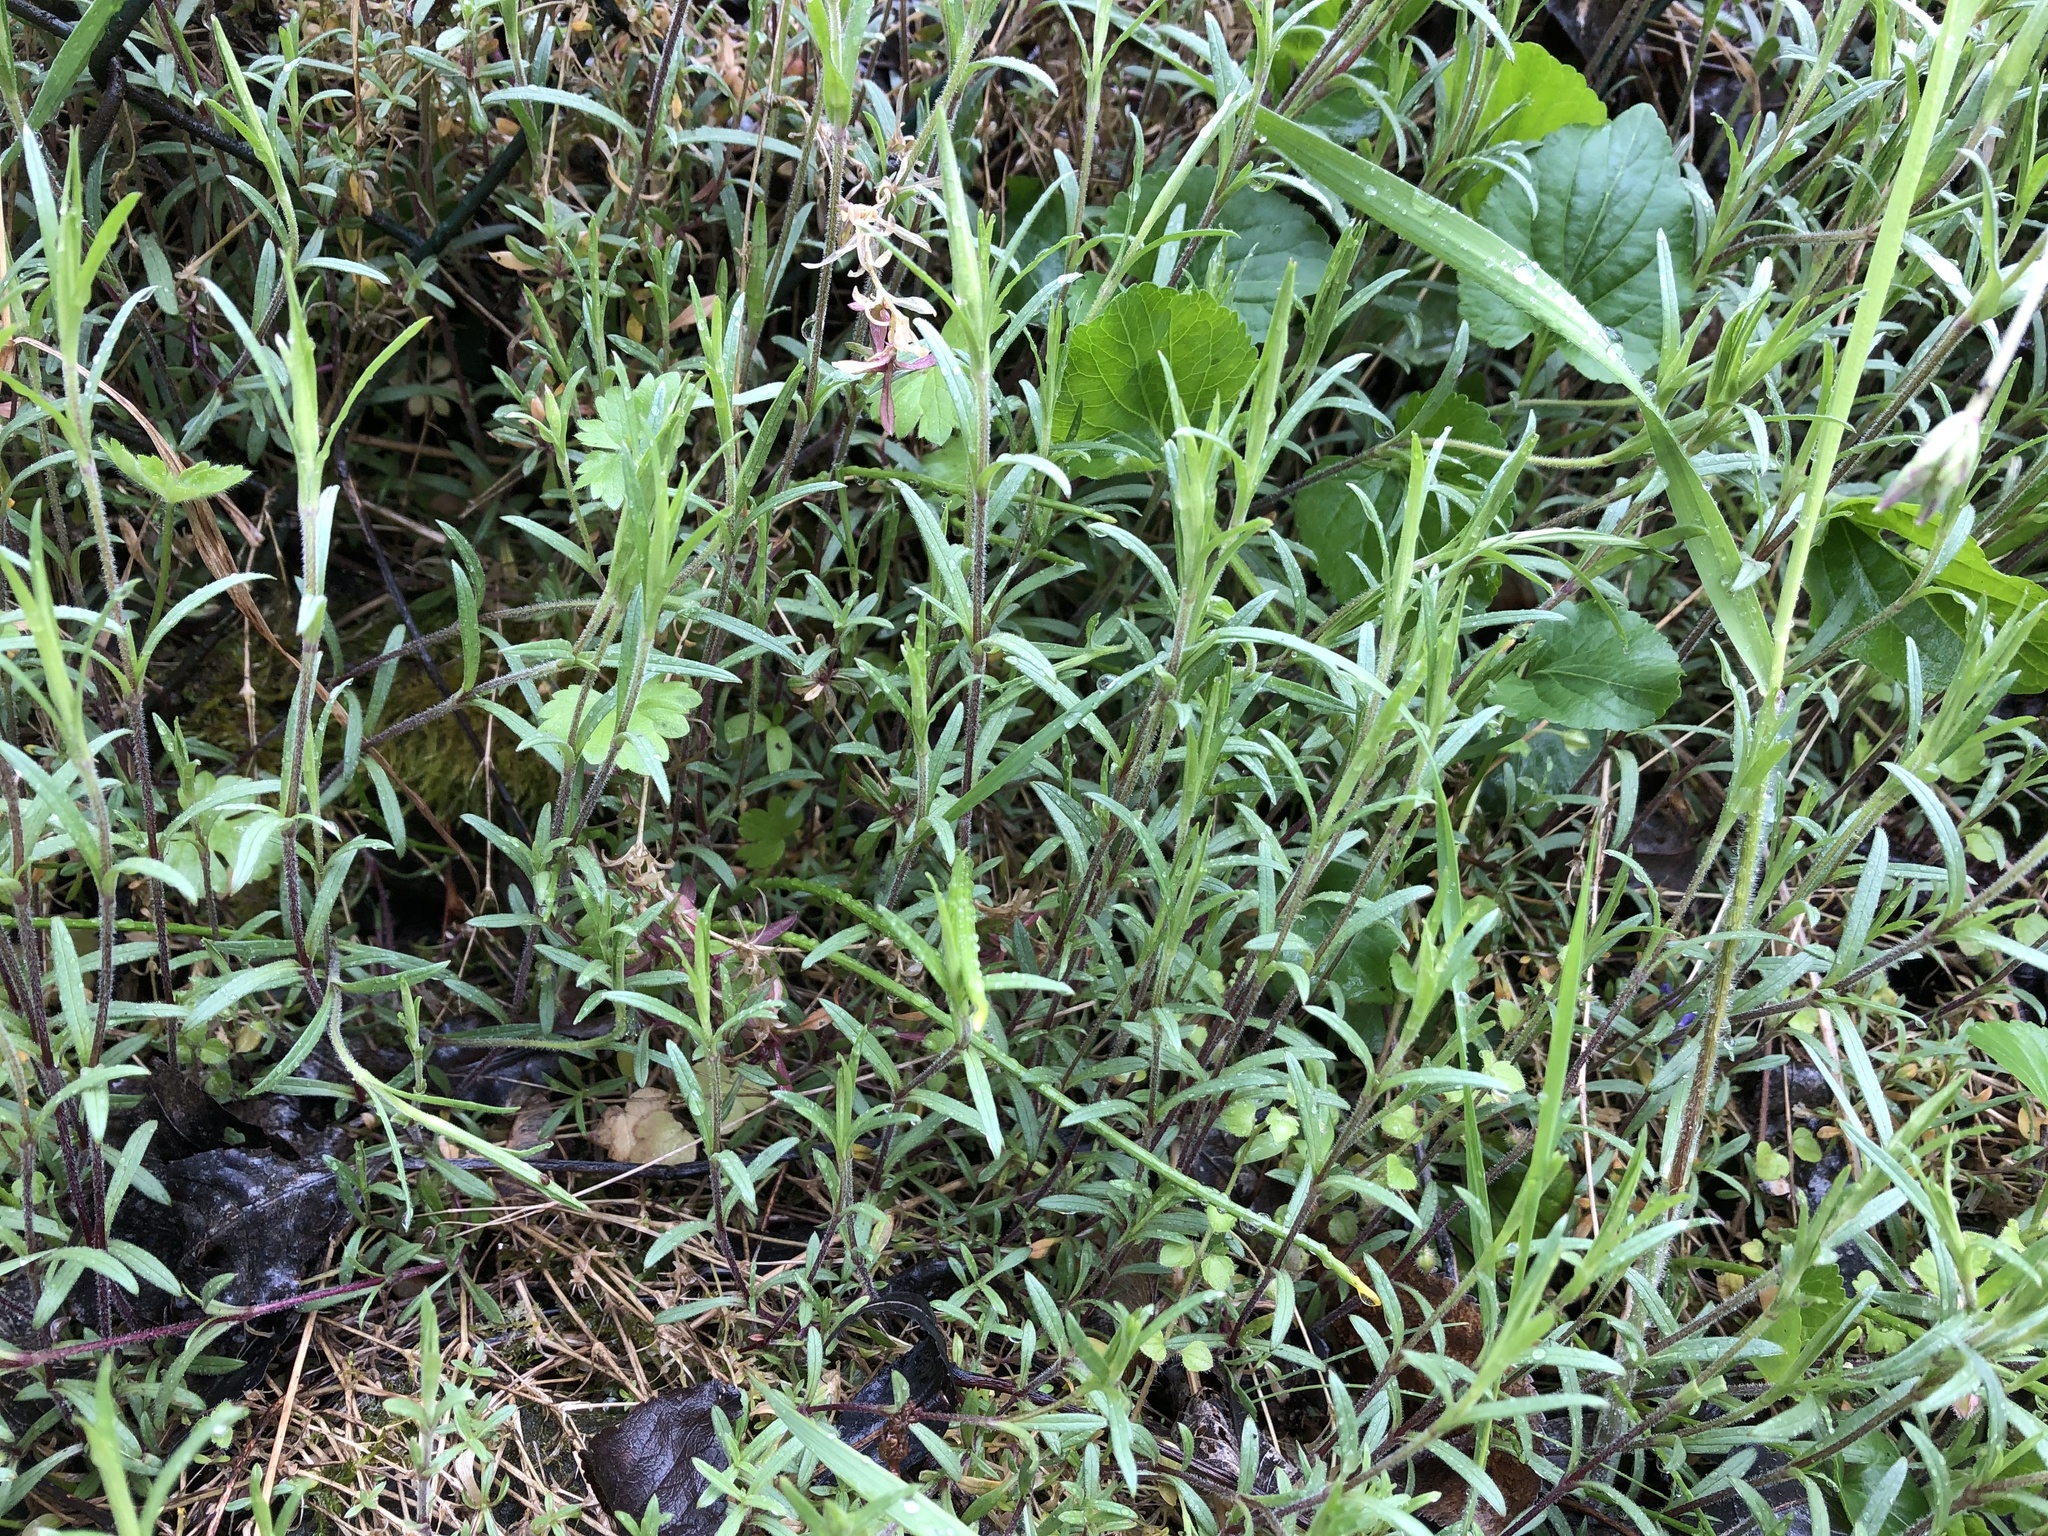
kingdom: Plantae
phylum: Tracheophyta
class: Magnoliopsida
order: Caryophyllales
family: Caryophyllaceae
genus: Cerastium
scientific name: Cerastium arvense
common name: Field mouse-ear
